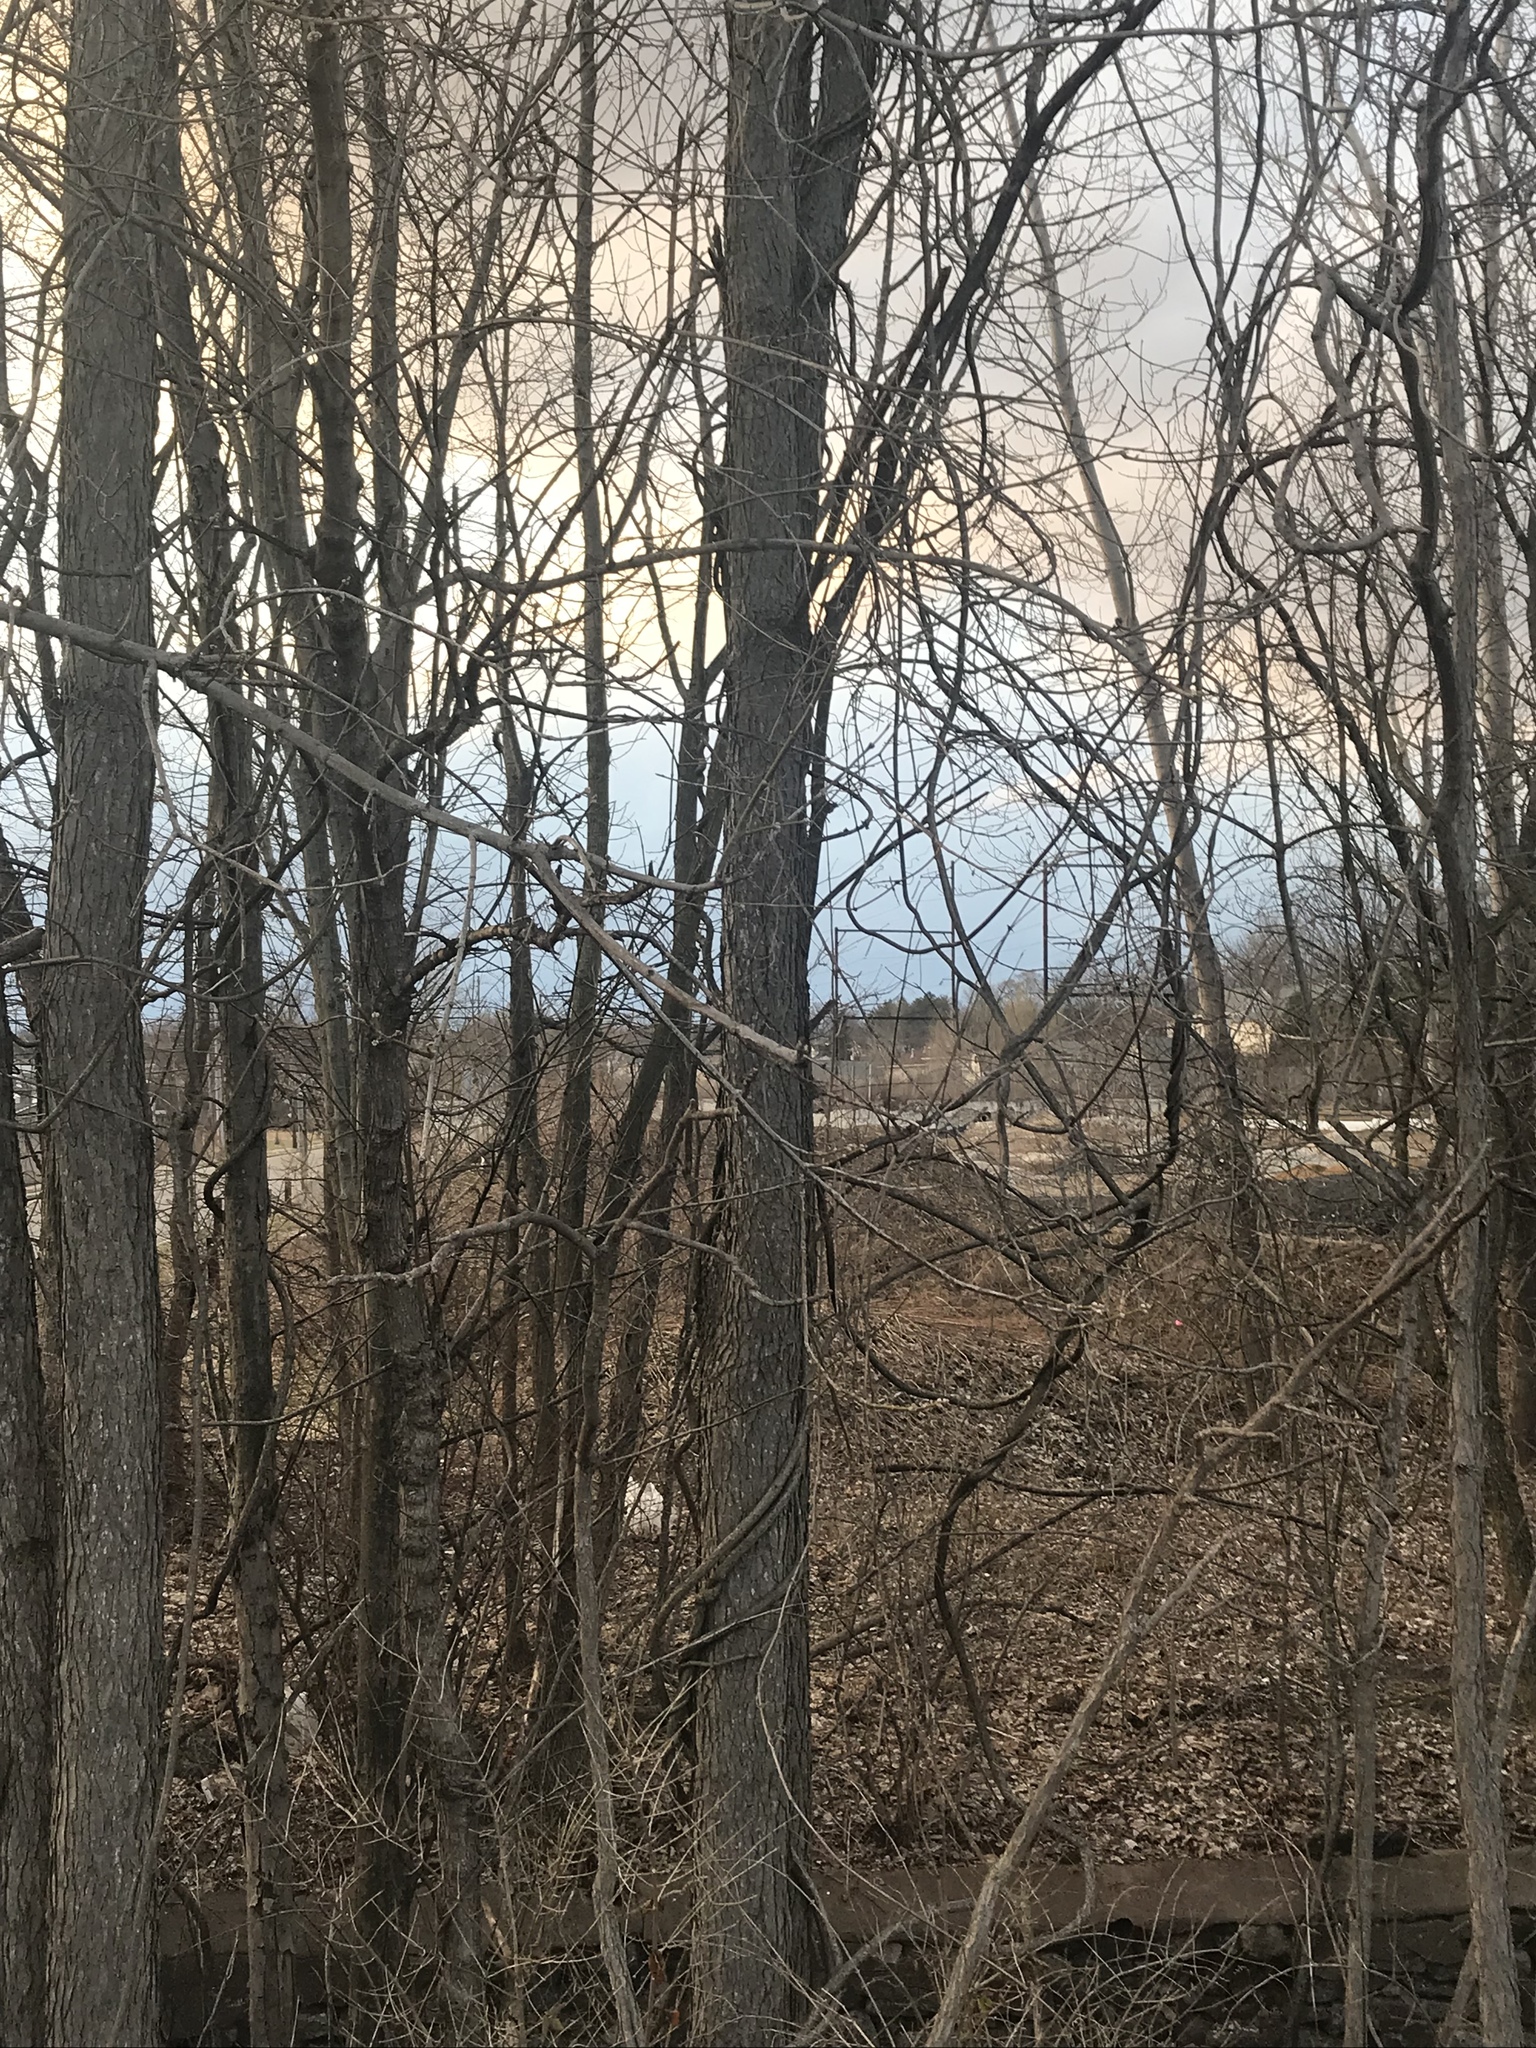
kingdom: Plantae
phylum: Tracheophyta
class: Magnoliopsida
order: Fabales
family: Fabaceae
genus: Gymnocladus
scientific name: Gymnocladus dioicus
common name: Kentucky coffee-tree
